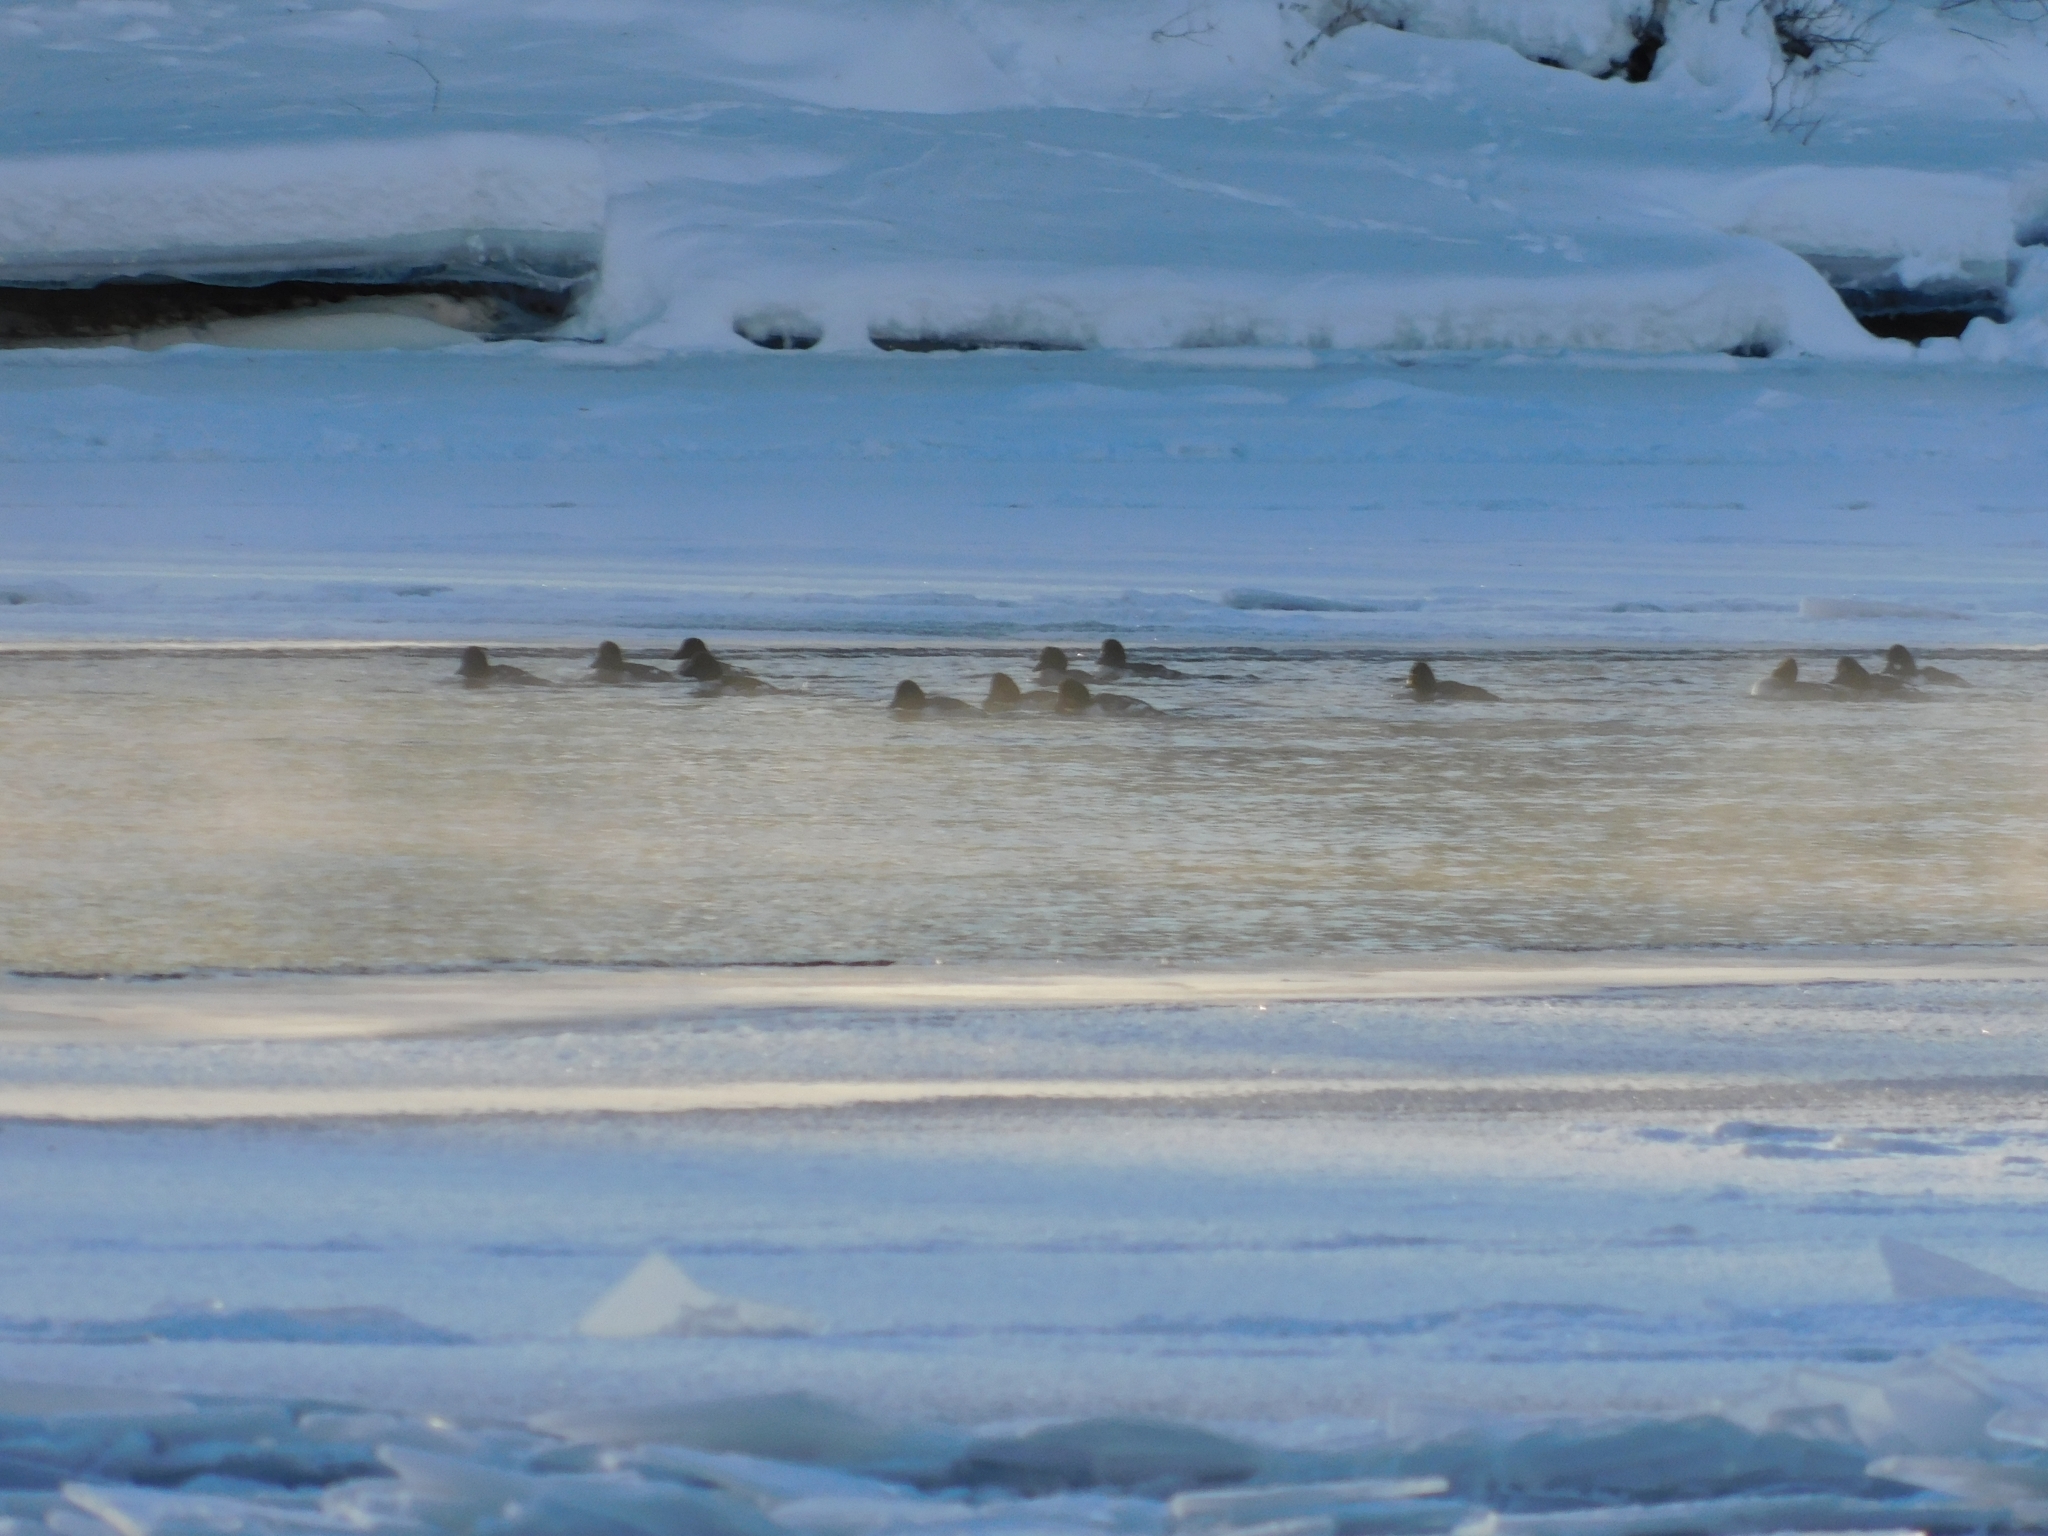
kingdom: Animalia
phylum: Chordata
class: Aves
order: Anseriformes
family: Anatidae
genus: Bucephala
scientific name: Bucephala clangula
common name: Common goldeneye
